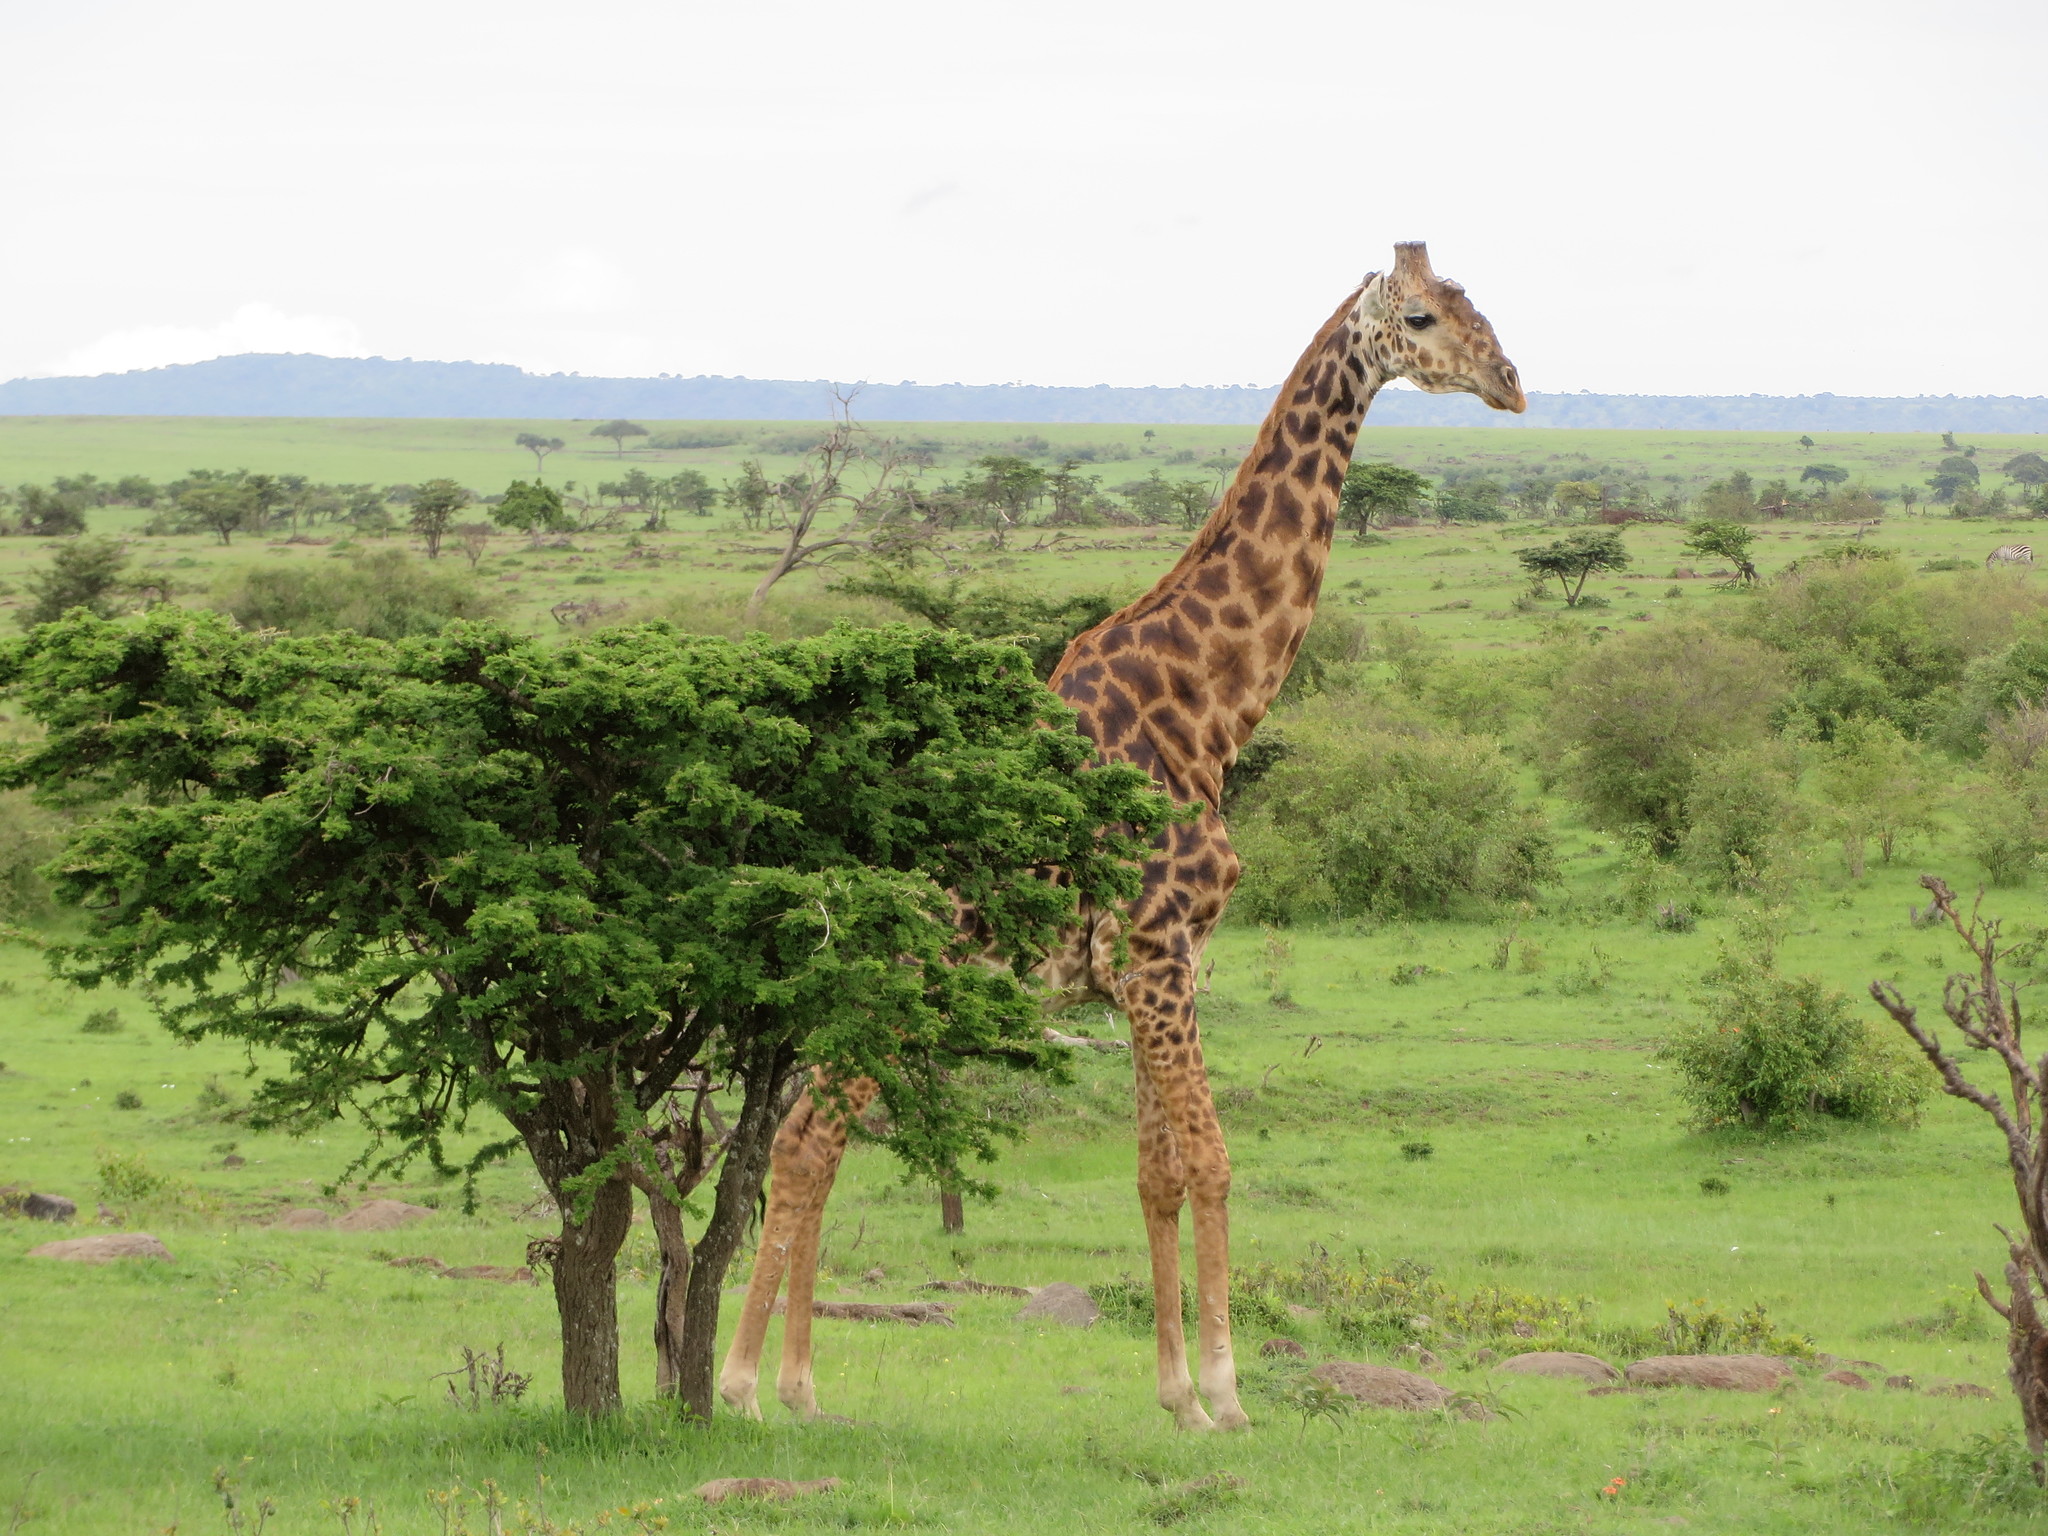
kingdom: Animalia
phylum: Chordata
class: Mammalia
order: Artiodactyla
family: Giraffidae
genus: Giraffa
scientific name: Giraffa tippelskirchi
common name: Masai giraffe
